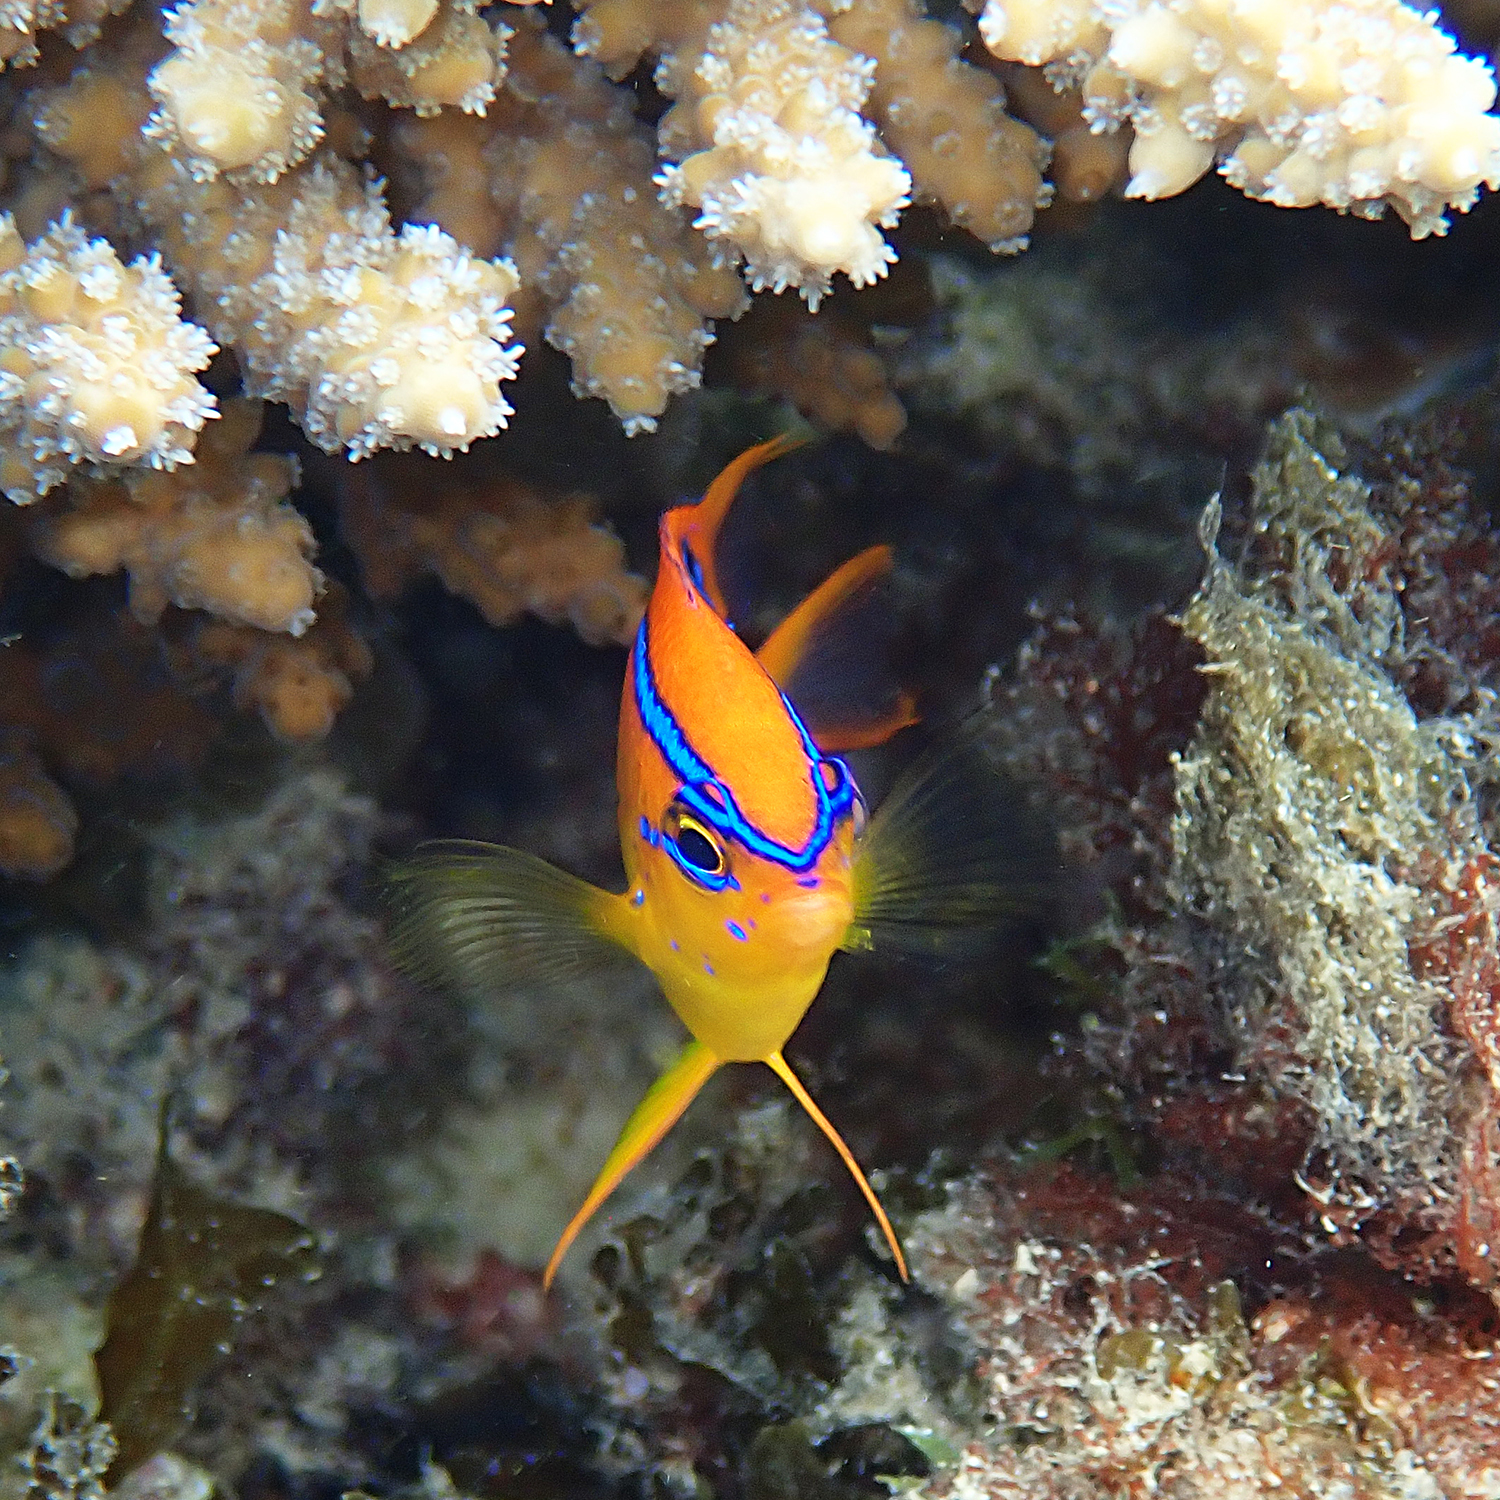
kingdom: Animalia
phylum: Chordata
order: Perciformes
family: Pomacentridae
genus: Neoglyphidodon
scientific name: Neoglyphidodon polyacanthus
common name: Multi-spined damsel
